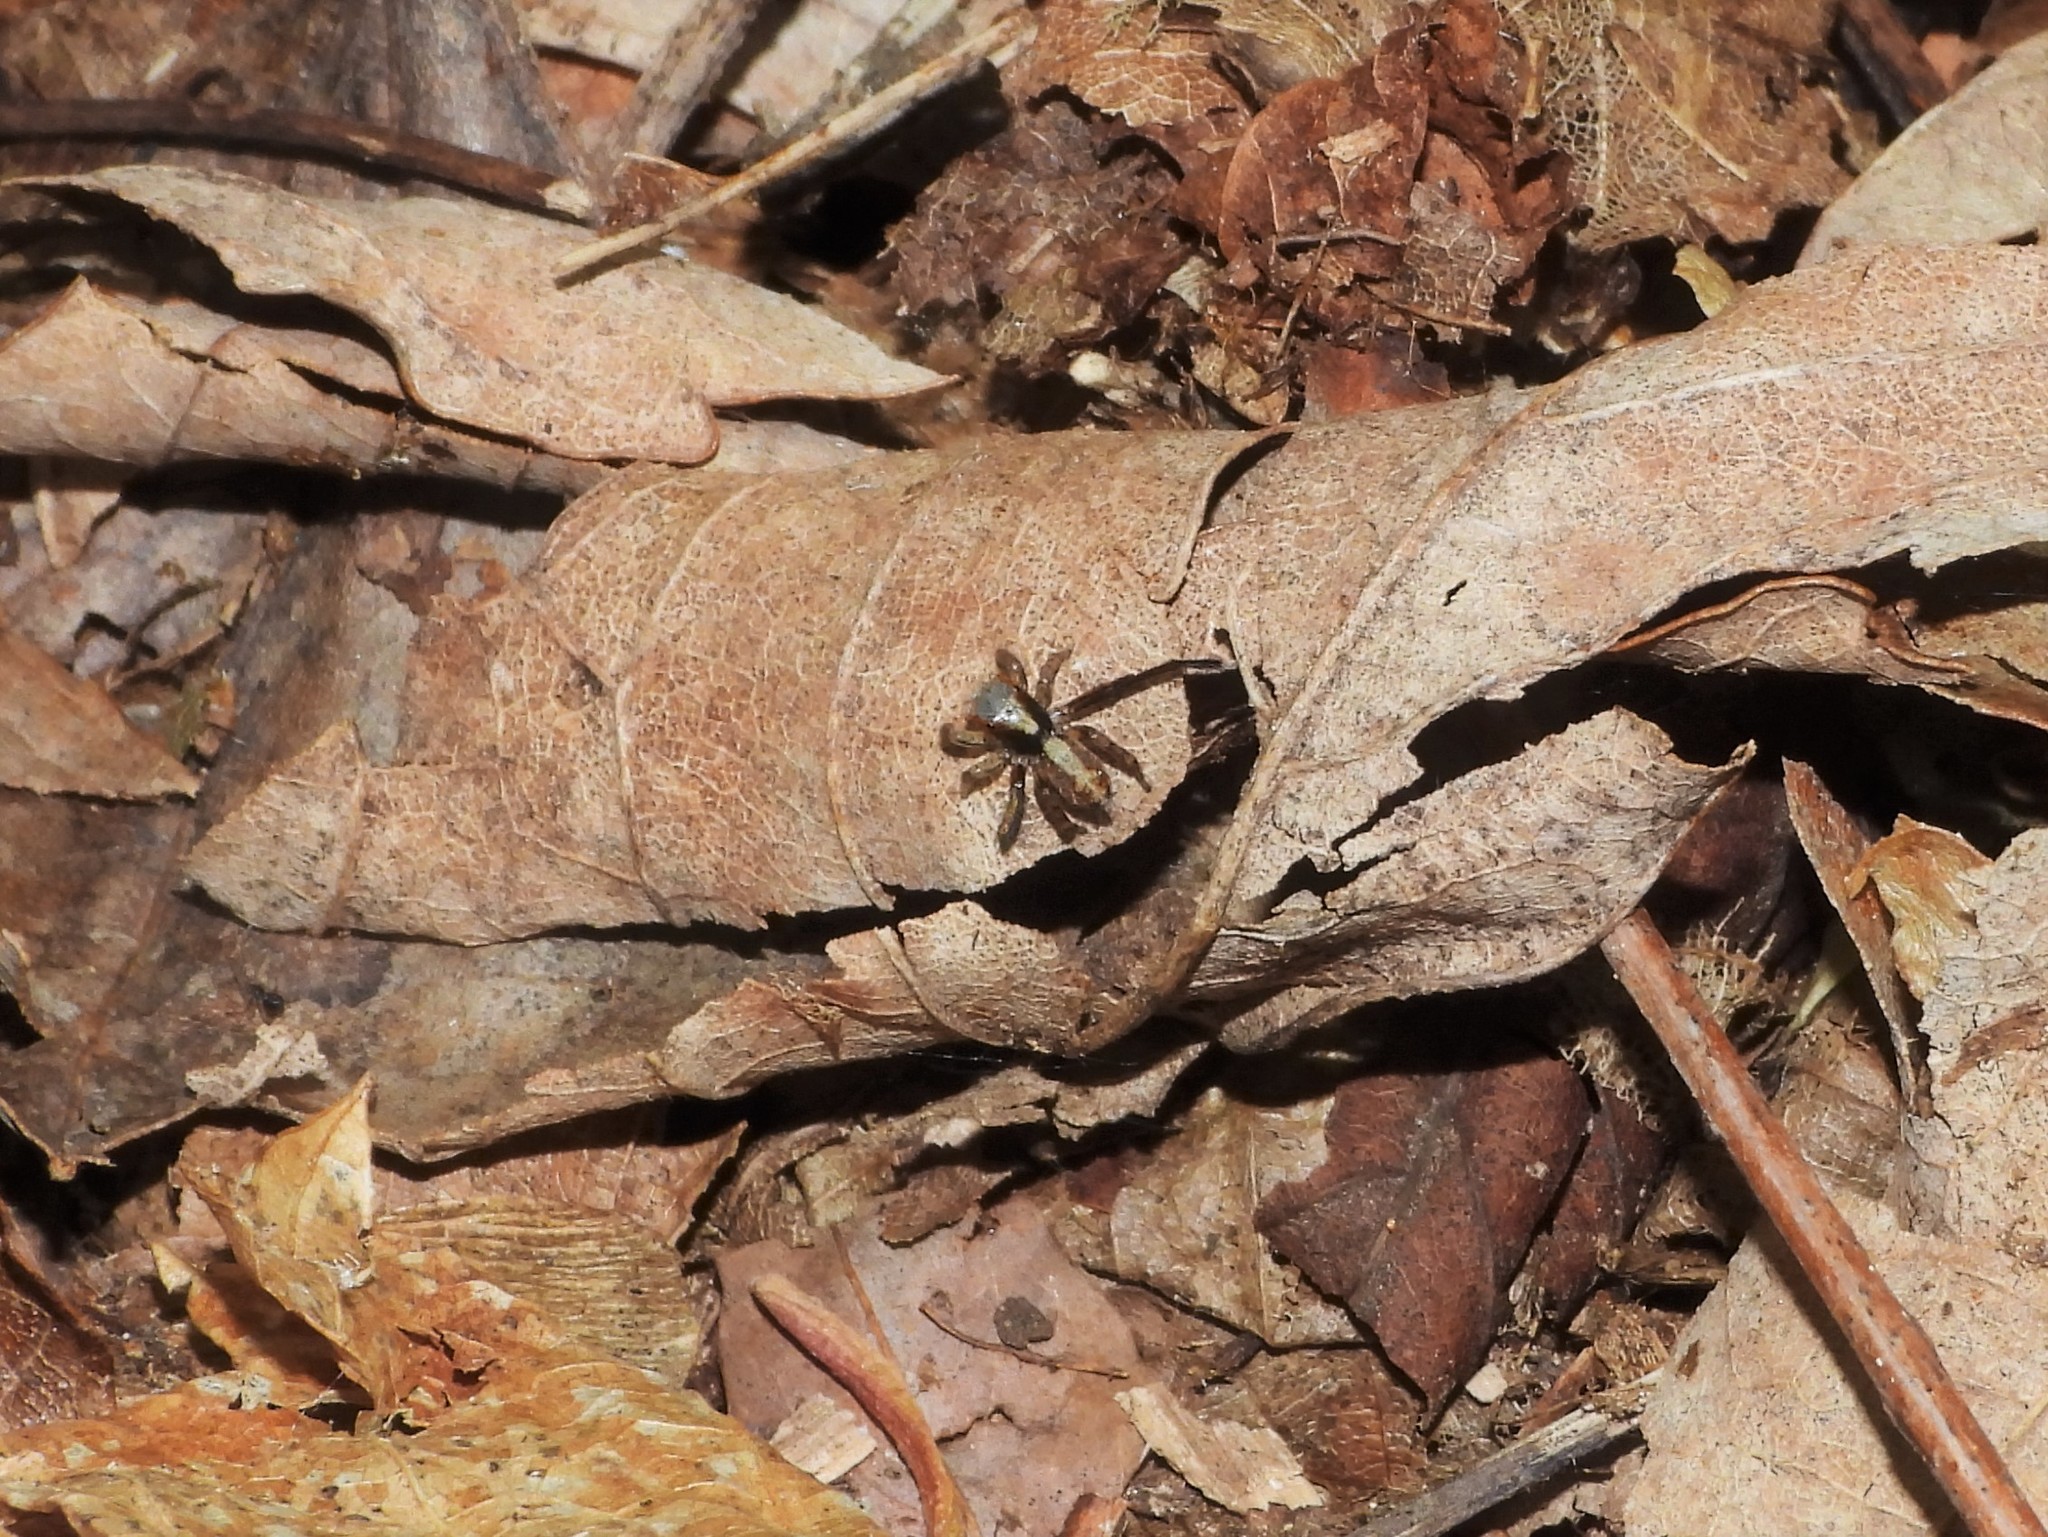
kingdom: Animalia
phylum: Arthropoda
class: Arachnida
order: Araneae
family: Salticidae
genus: Saitis
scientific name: Saitis barbipes
